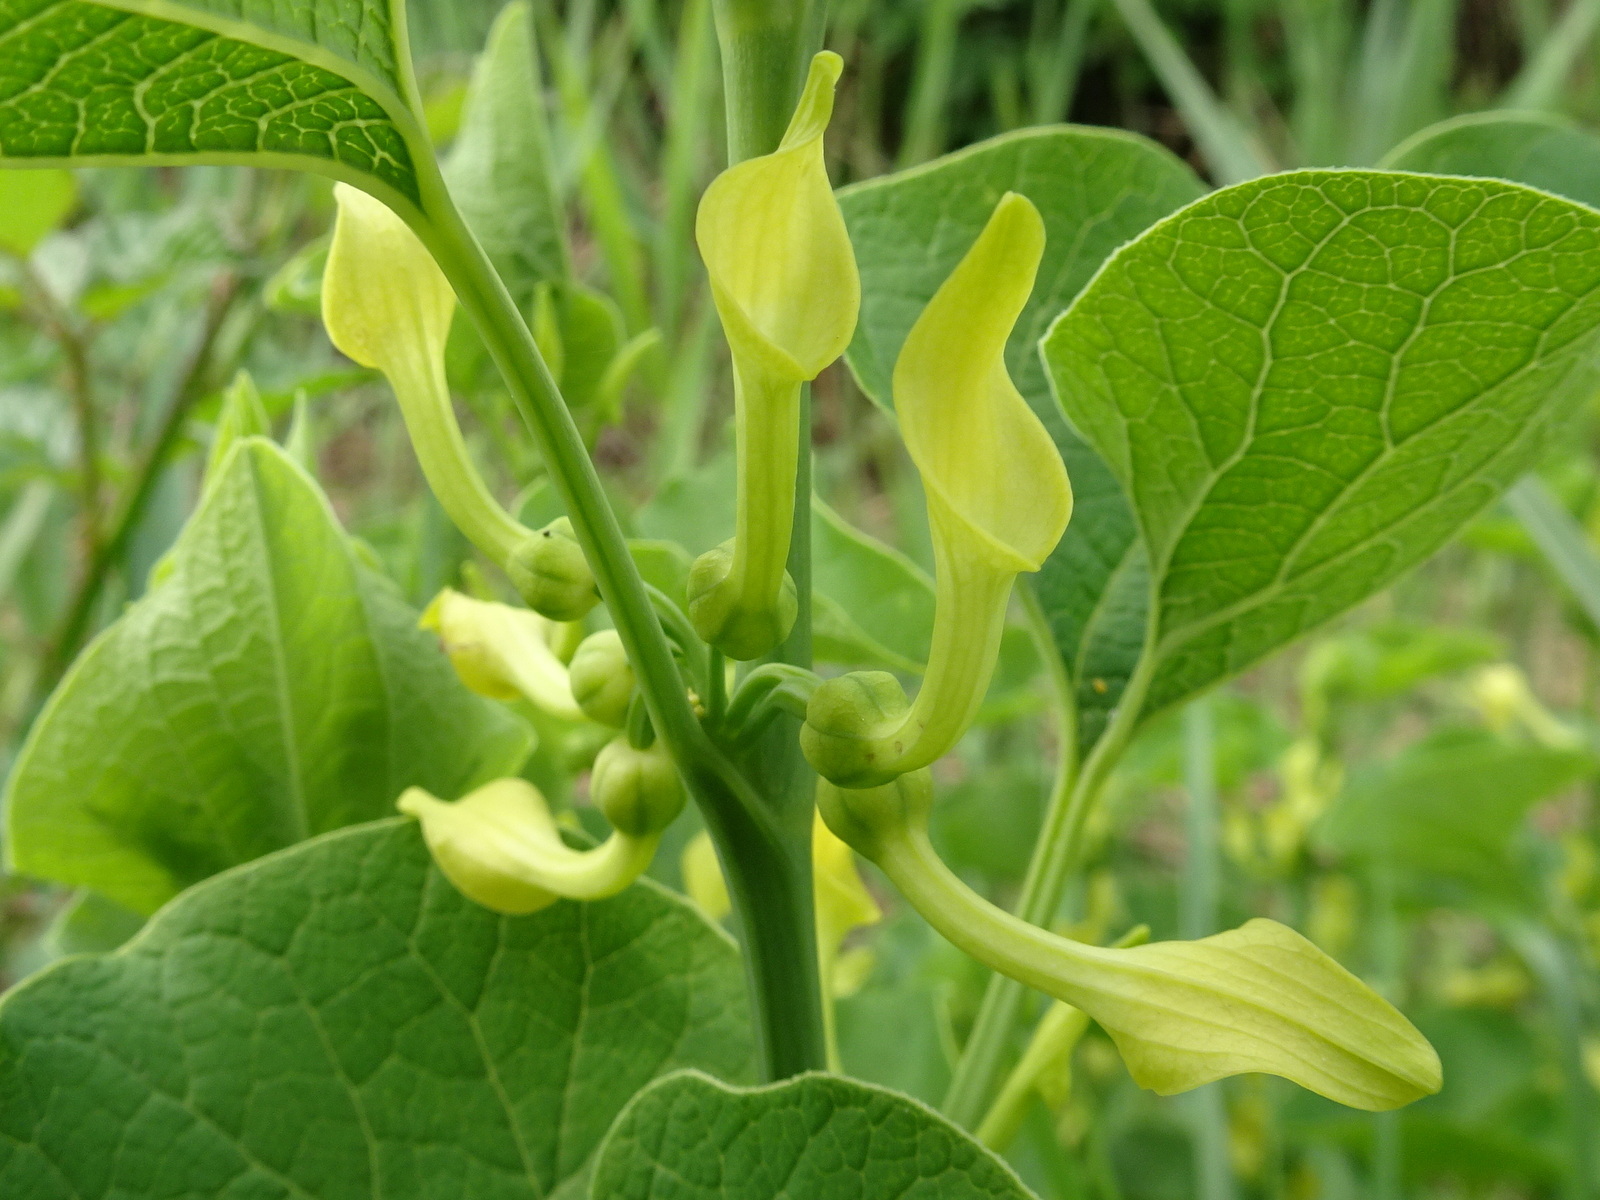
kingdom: Plantae
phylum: Tracheophyta
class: Magnoliopsida
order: Piperales
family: Aristolochiaceae
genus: Aristolochia
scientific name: Aristolochia clematitis
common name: Birthwort
